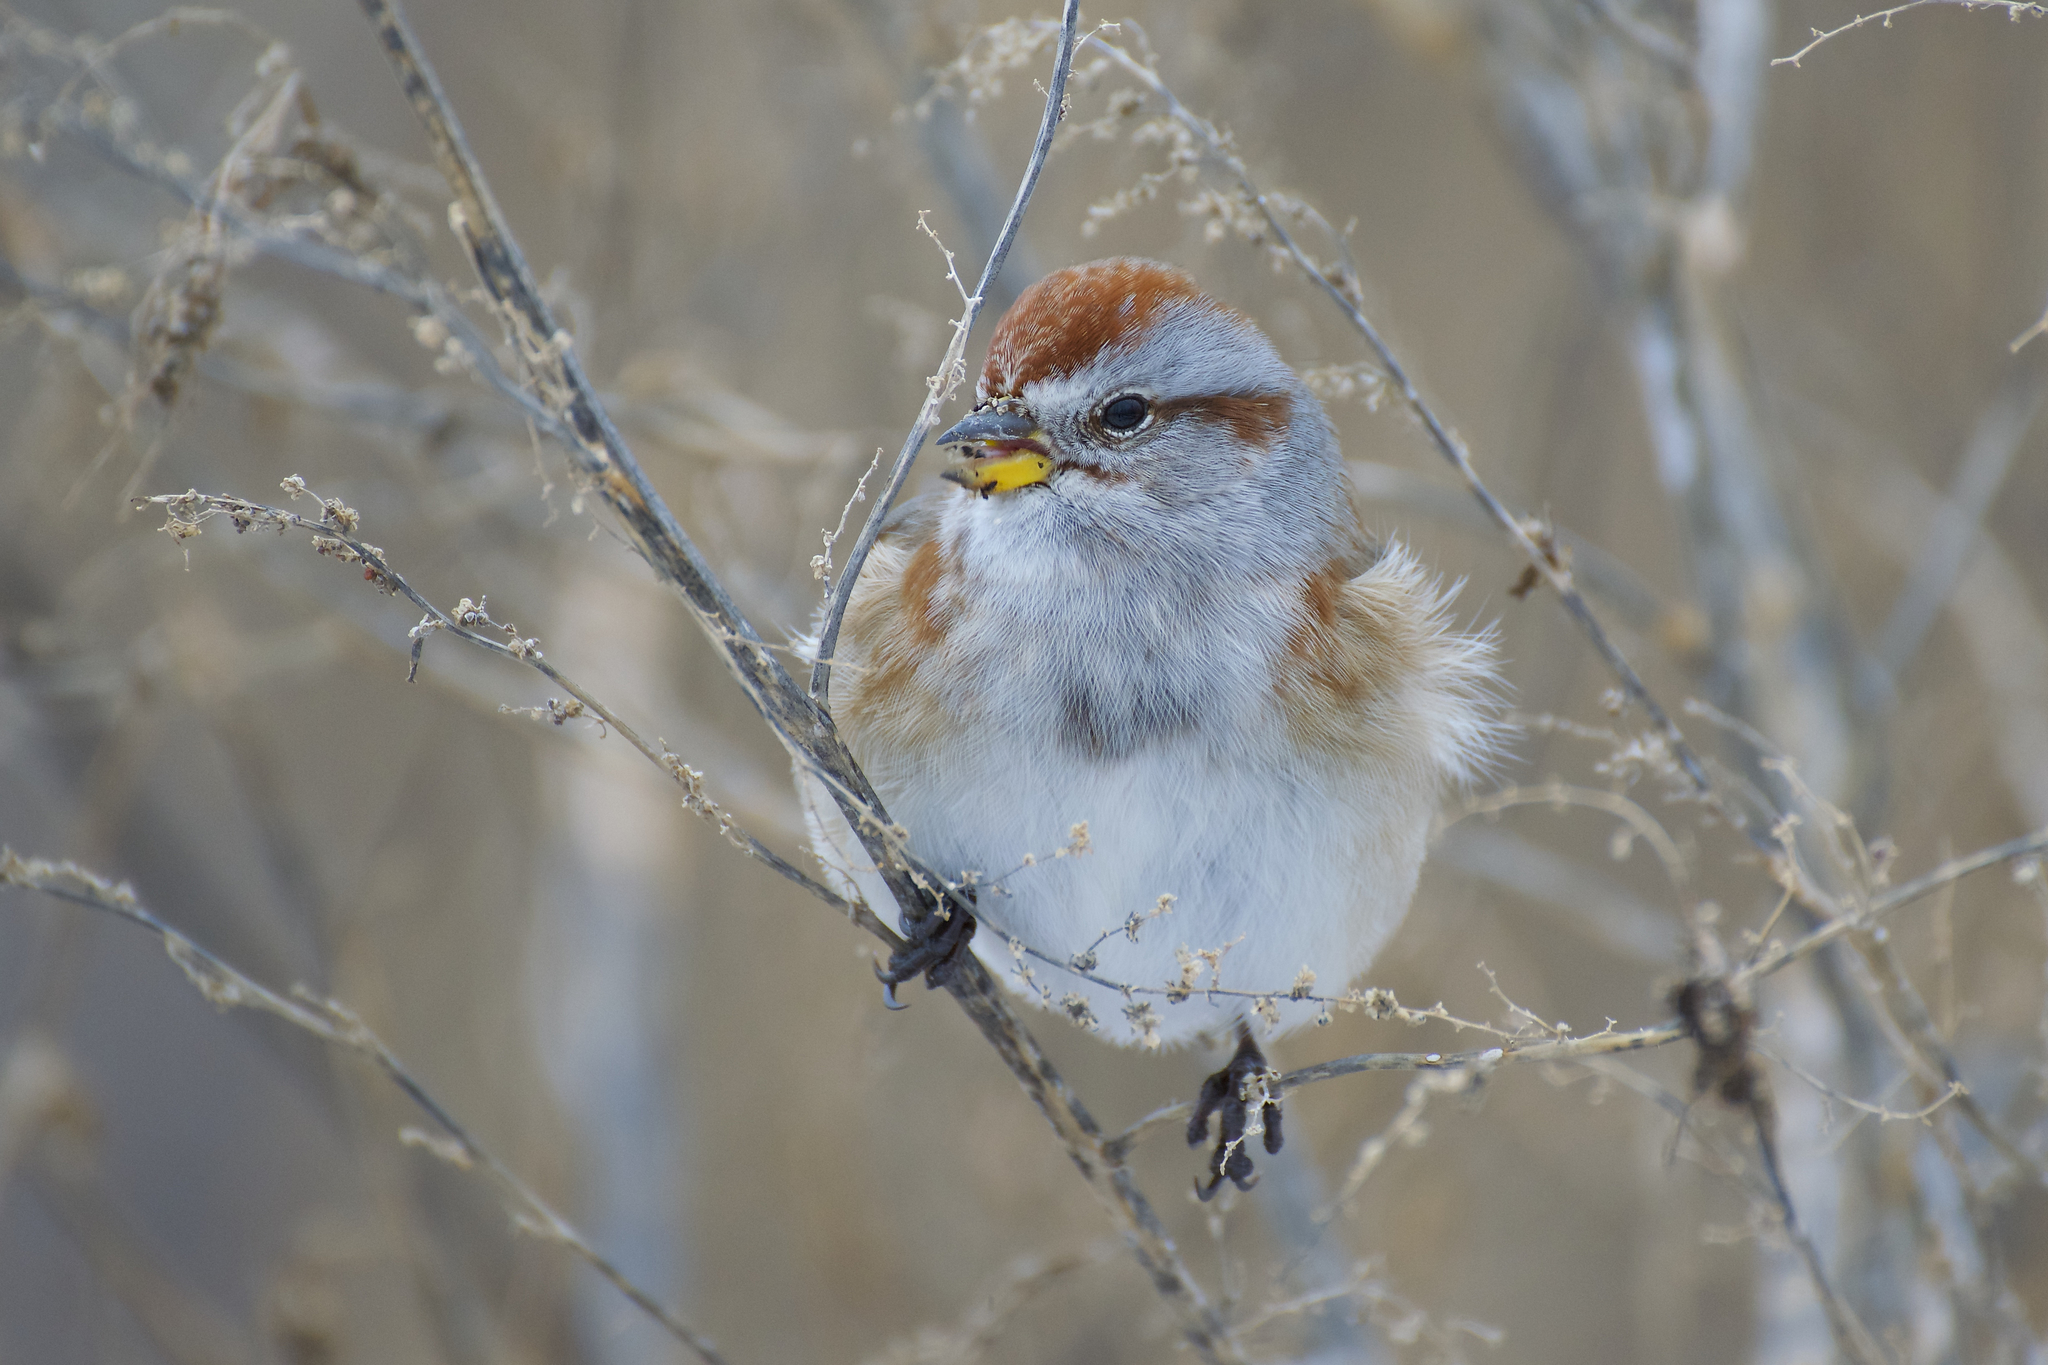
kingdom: Animalia
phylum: Chordata
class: Aves
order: Passeriformes
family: Passerellidae
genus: Spizelloides
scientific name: Spizelloides arborea
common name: American tree sparrow
